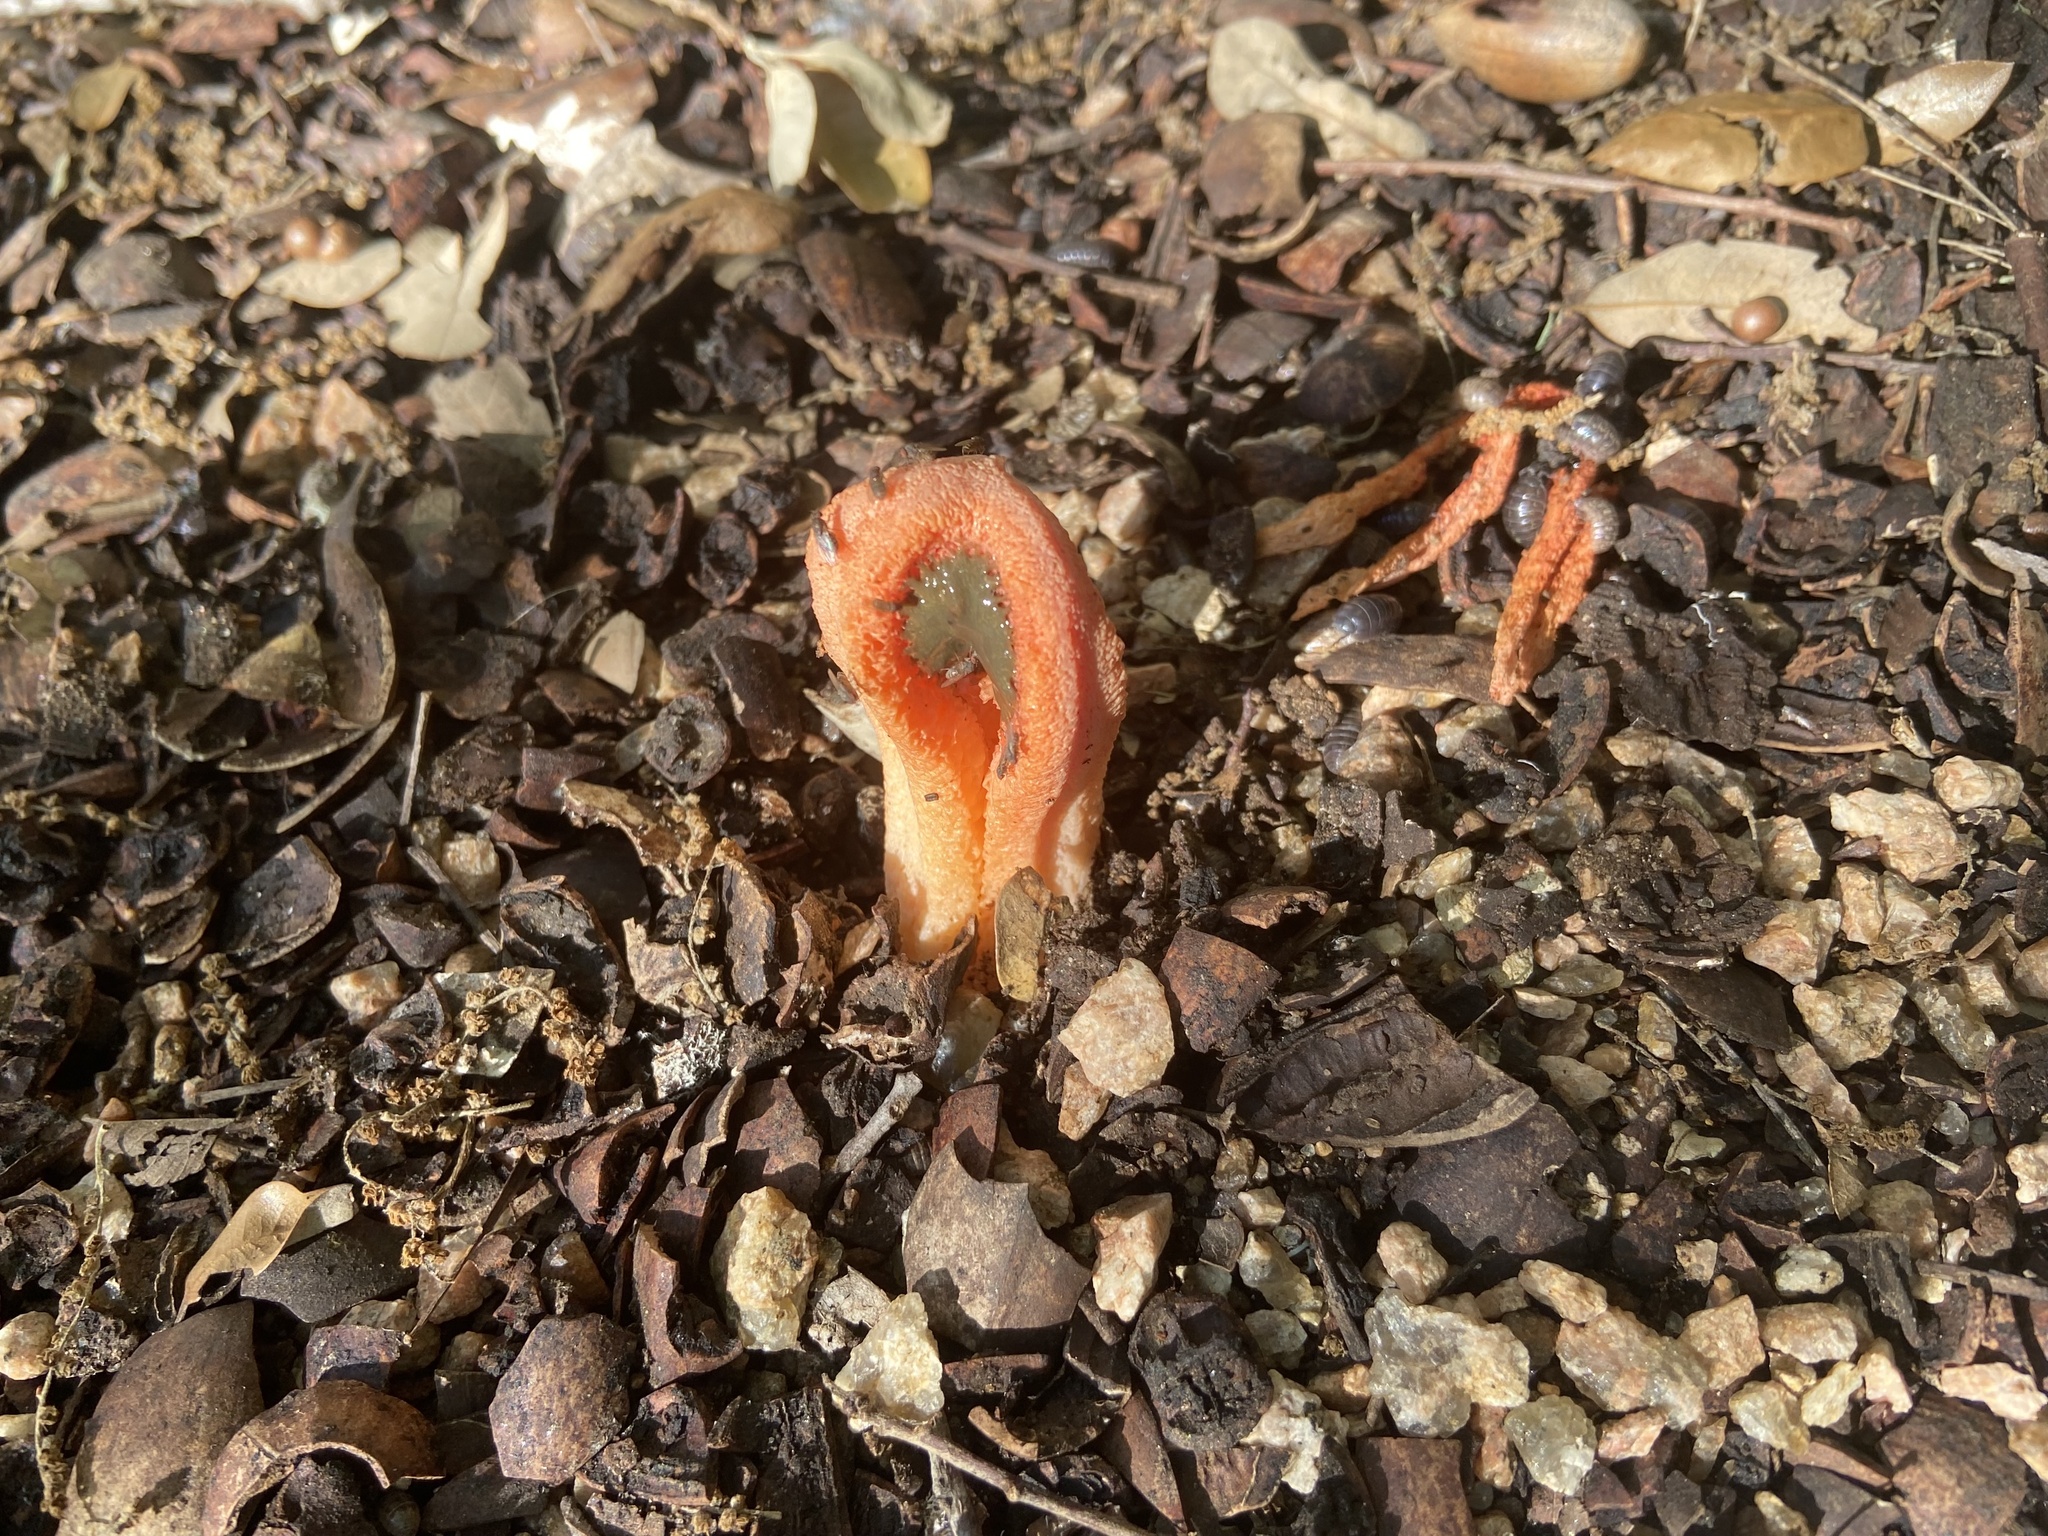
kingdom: Fungi
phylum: Basidiomycota
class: Agaricomycetes
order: Phallales
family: Phallaceae
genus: Clathrus
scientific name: Clathrus columnatus
